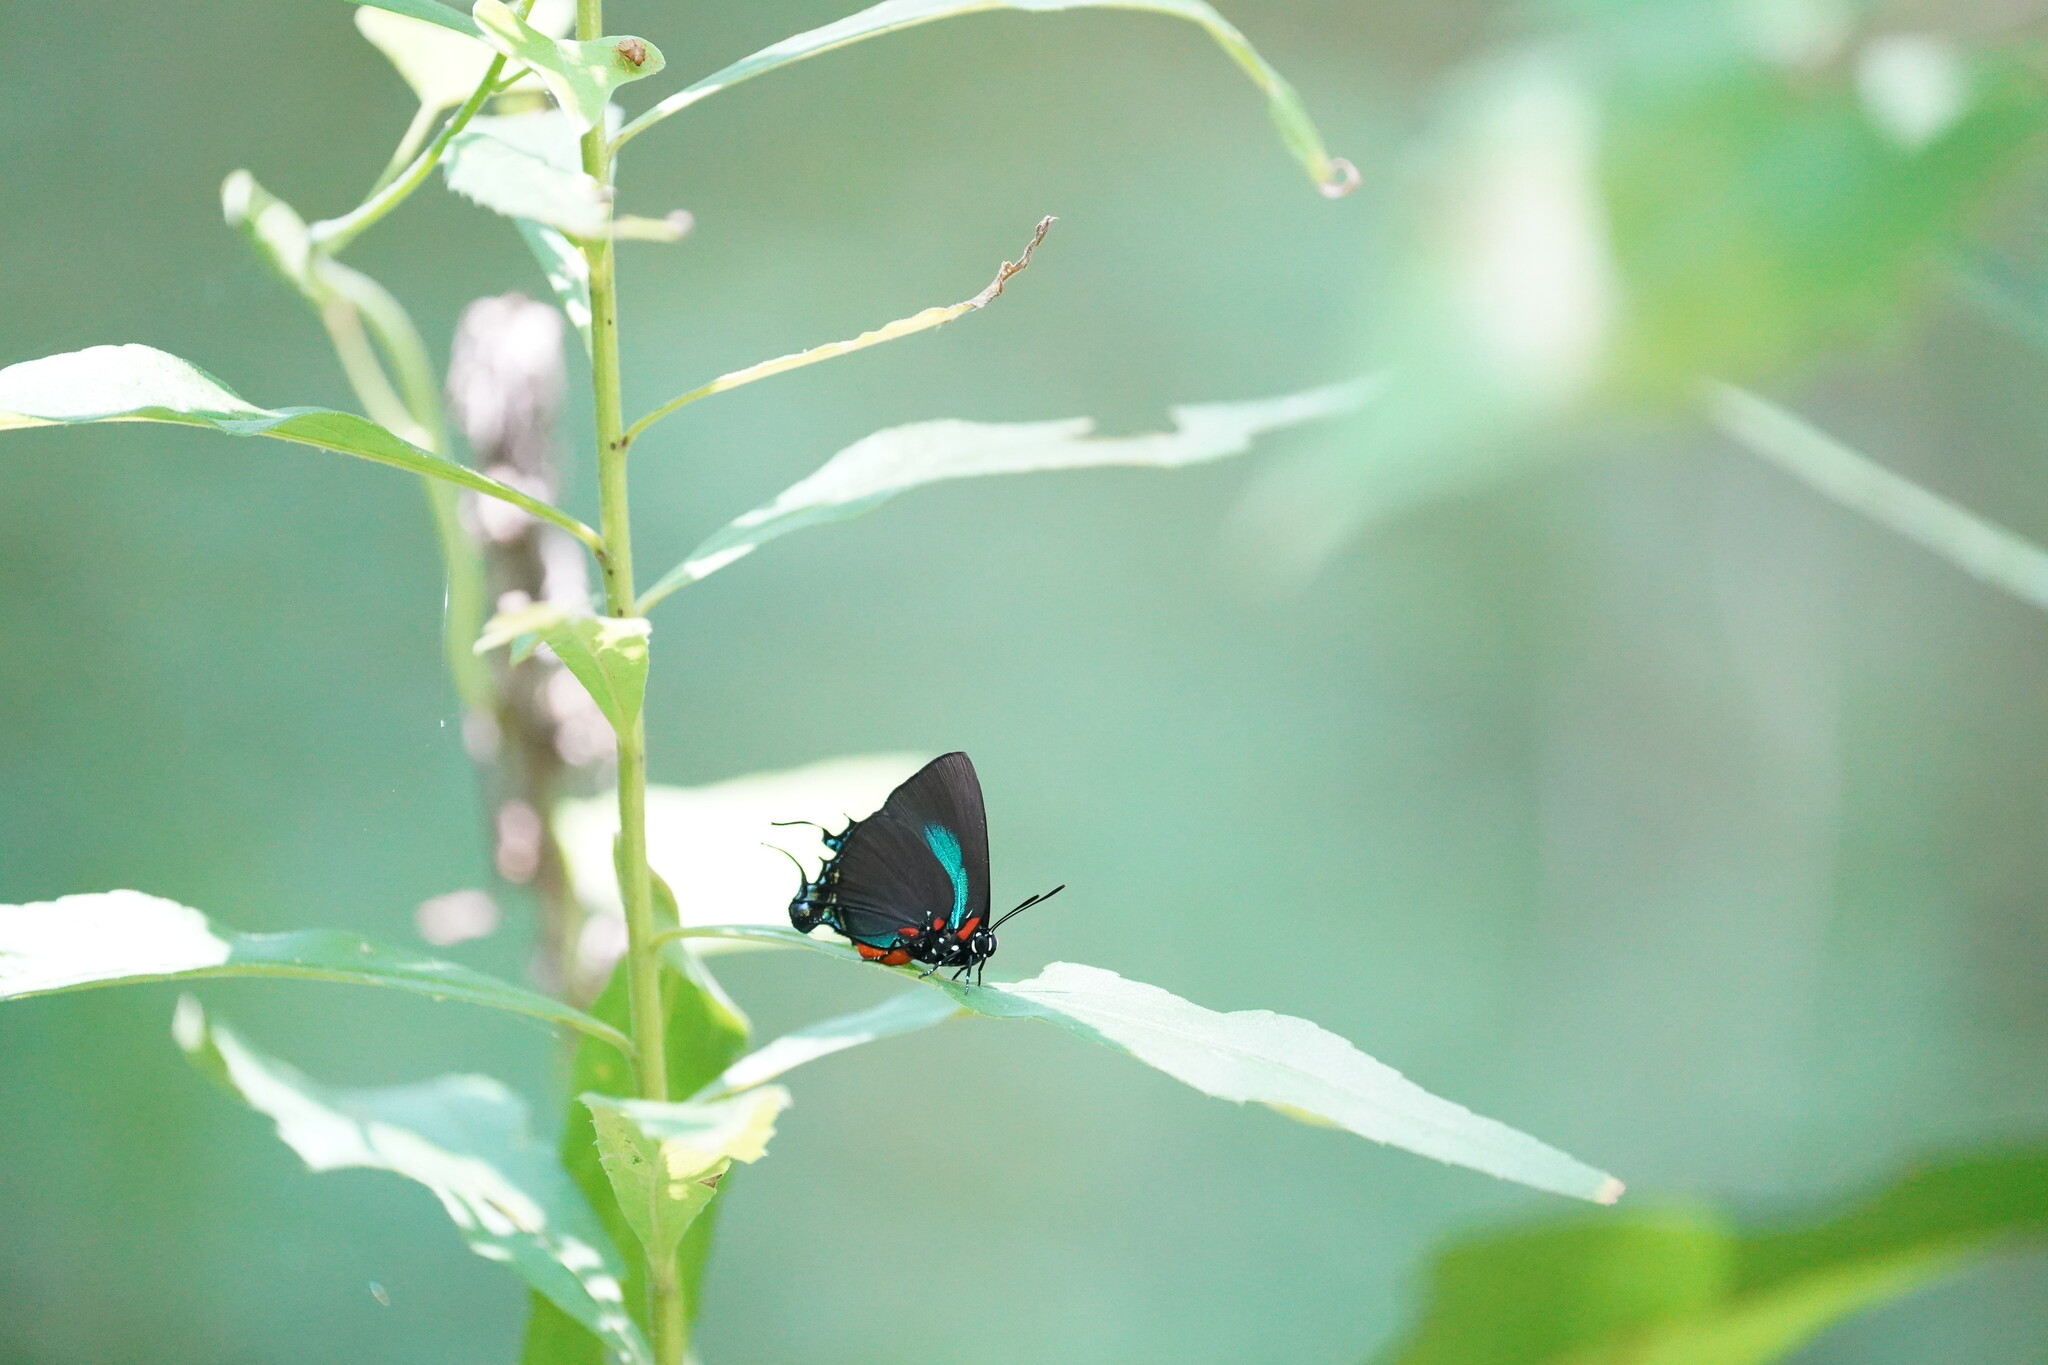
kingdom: Animalia
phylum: Arthropoda
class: Insecta
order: Lepidoptera
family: Lycaenidae
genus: Atlides
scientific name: Atlides halesus
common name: Great purple hairstreak
